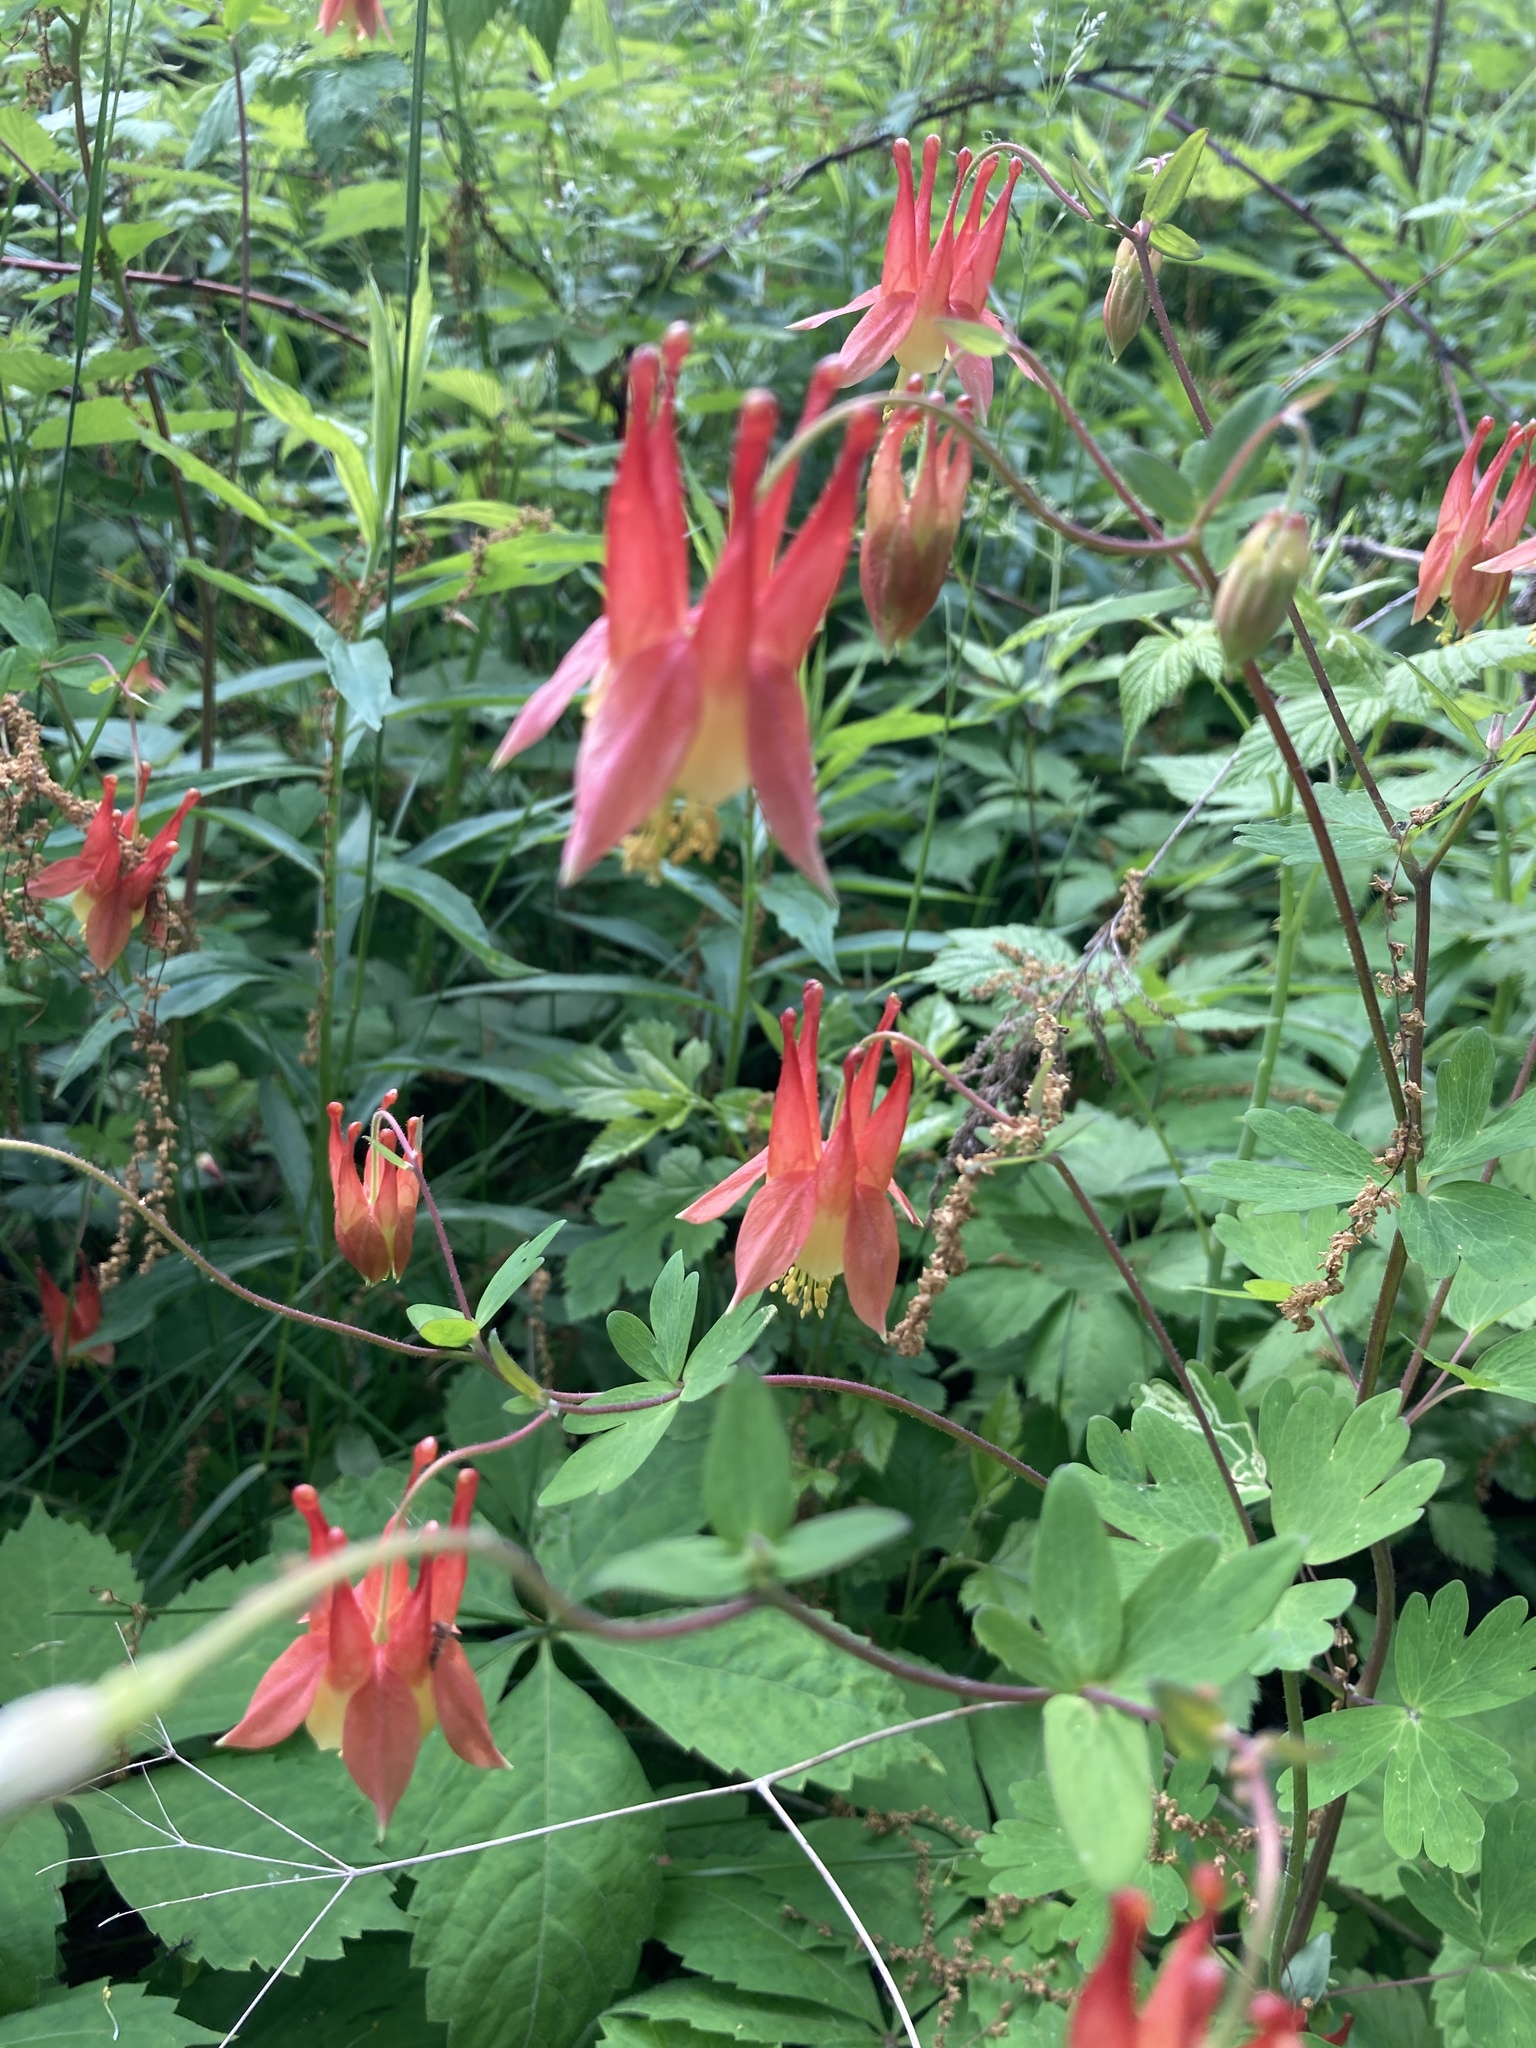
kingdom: Plantae
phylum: Tracheophyta
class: Magnoliopsida
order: Ranunculales
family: Ranunculaceae
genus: Aquilegia
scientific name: Aquilegia canadensis
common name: American columbine
